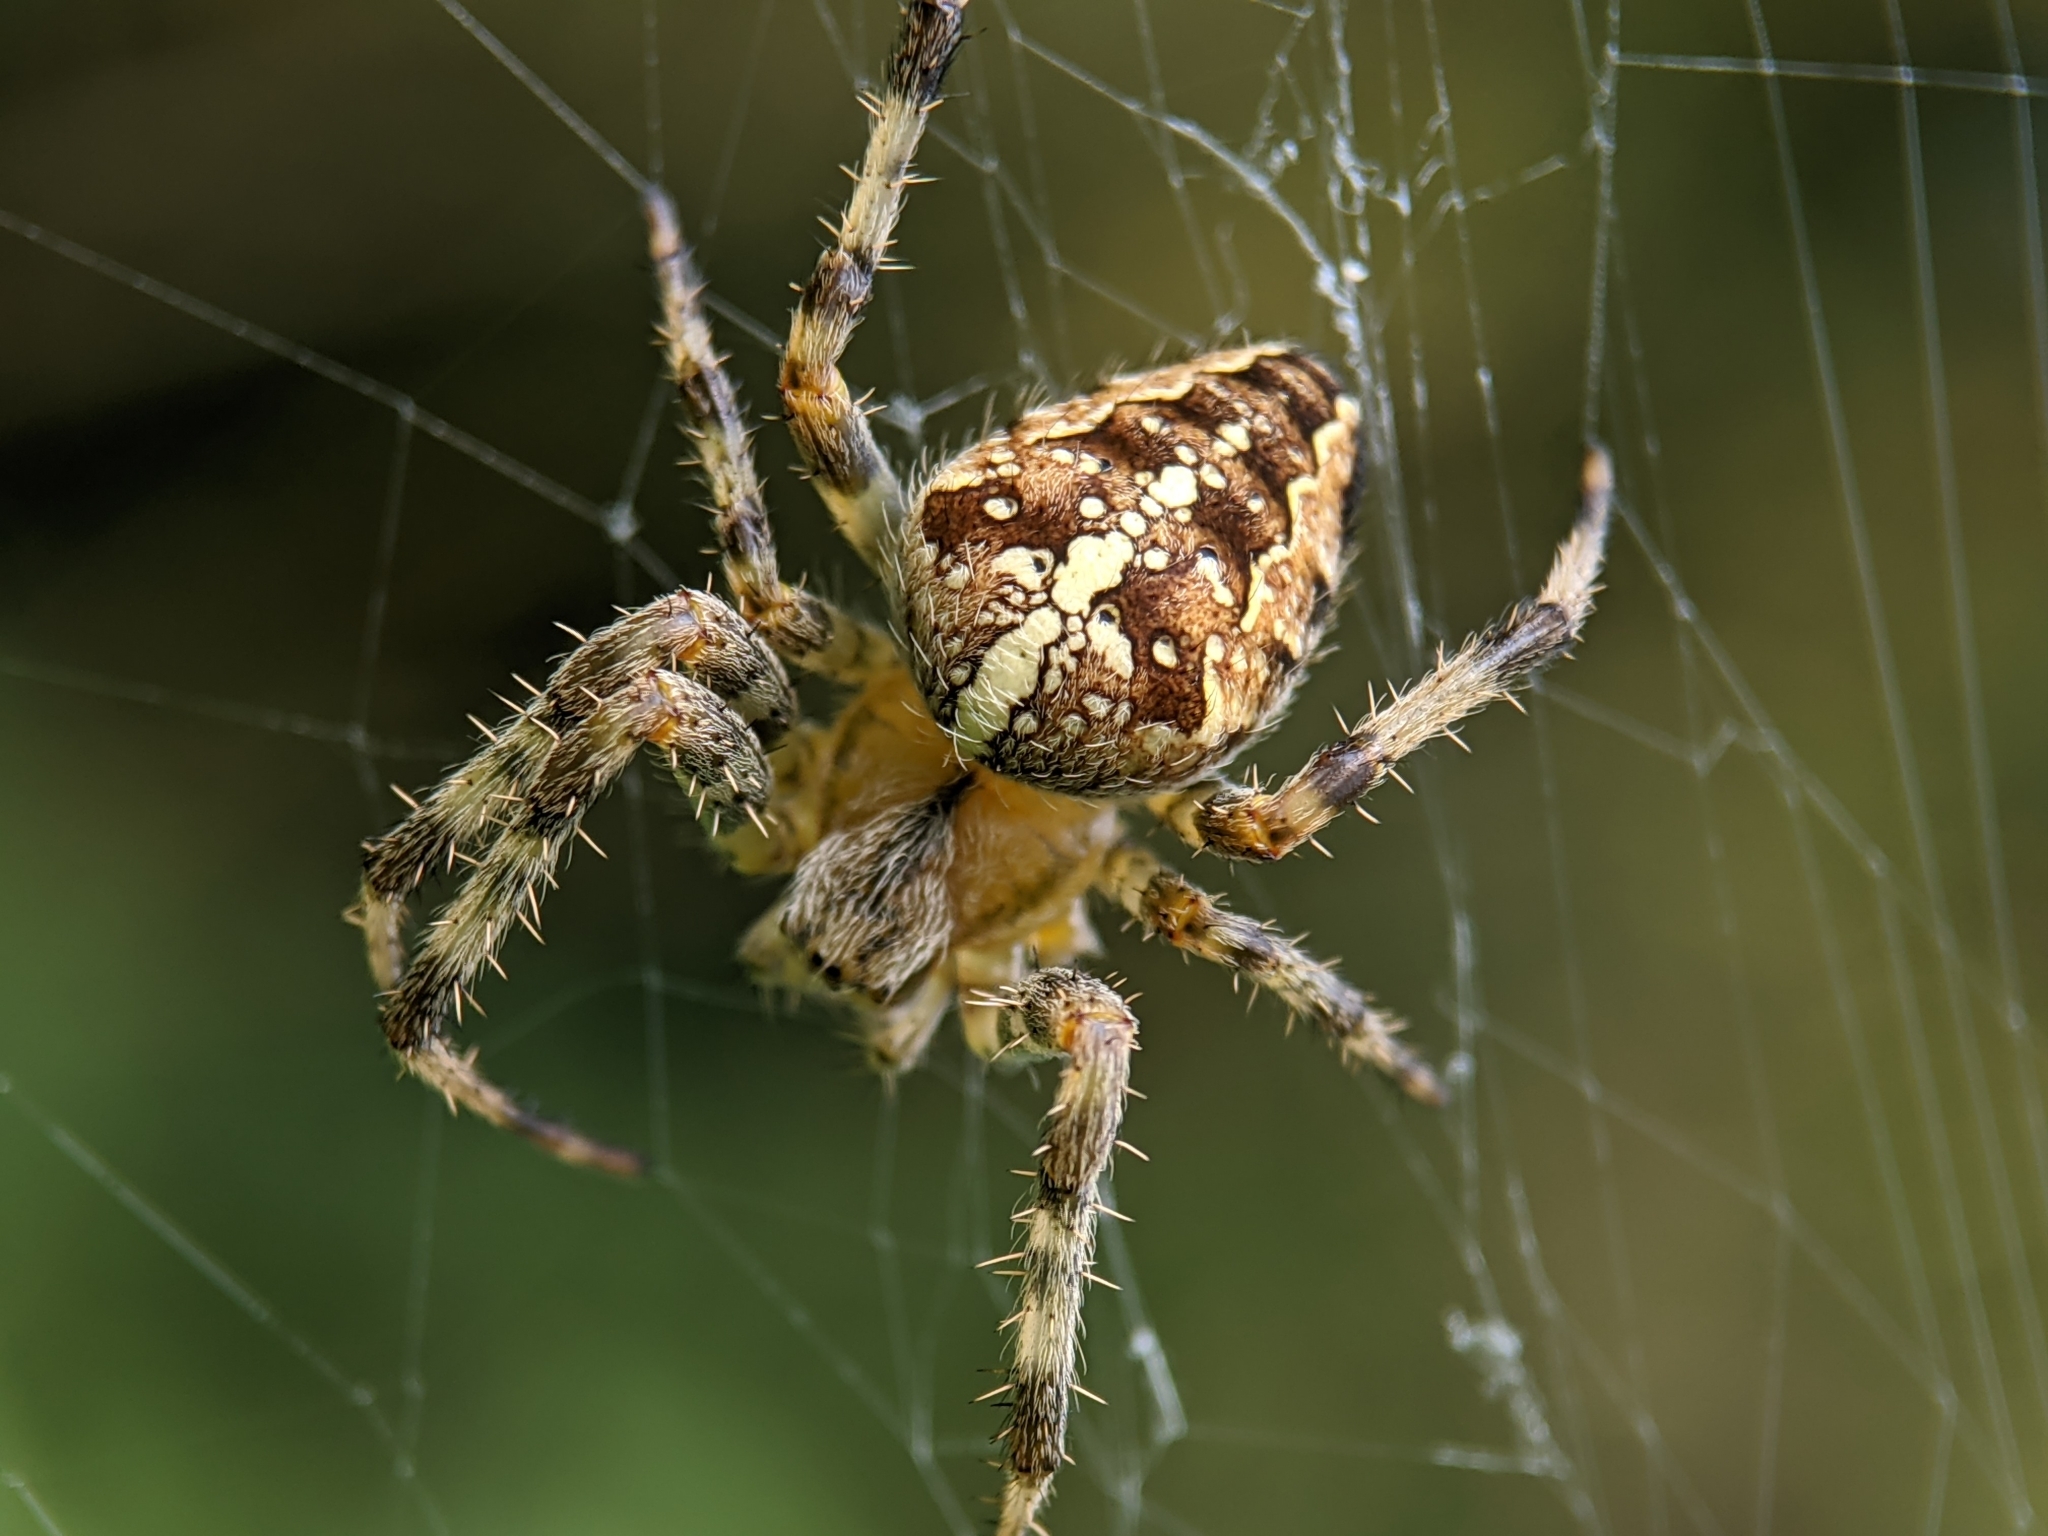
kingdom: Animalia
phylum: Arthropoda
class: Arachnida
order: Araneae
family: Araneidae
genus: Araneus
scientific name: Araneus diadematus
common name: Cross orbweaver
